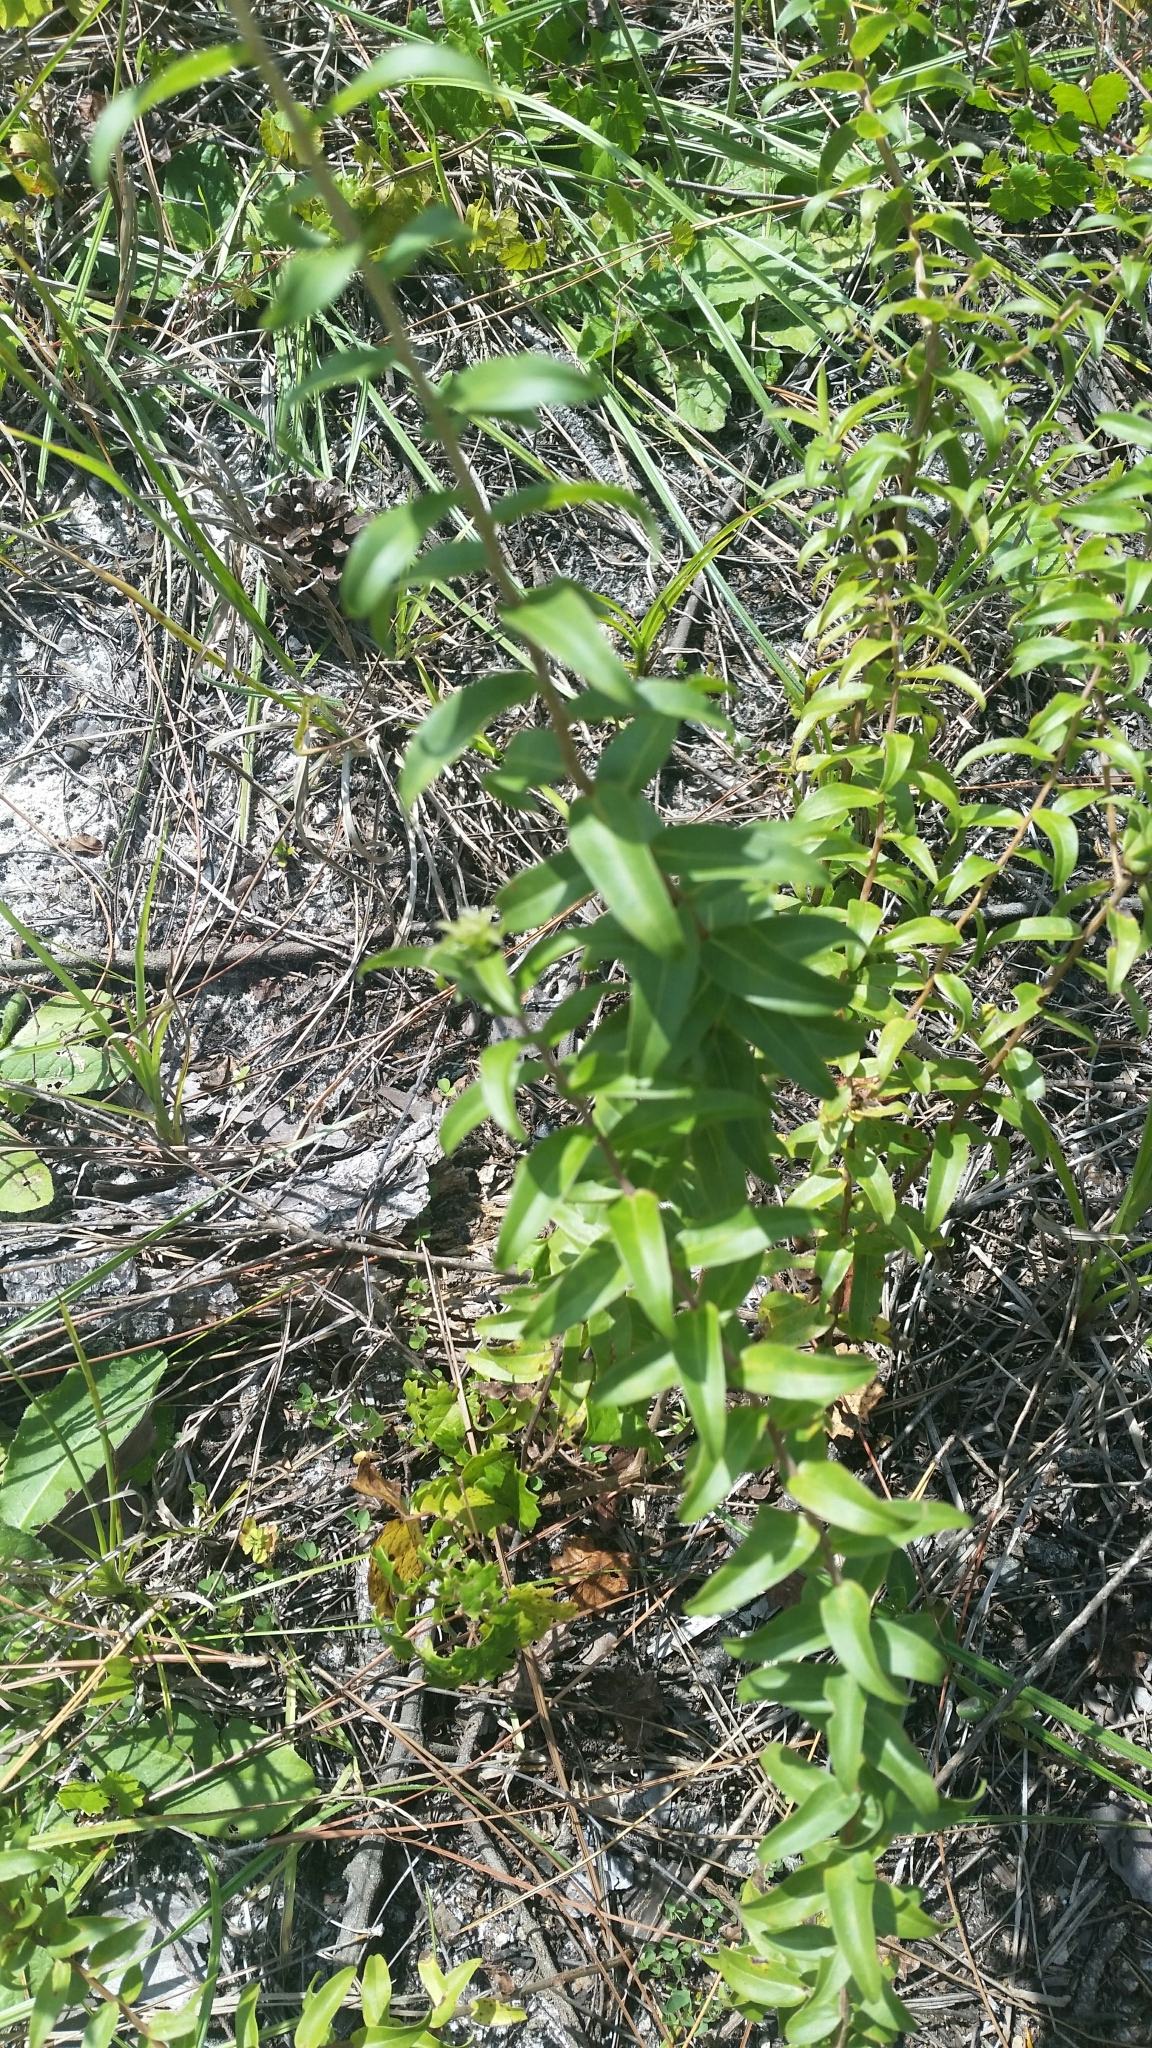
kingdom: Plantae
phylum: Tracheophyta
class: Magnoliopsida
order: Asterales
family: Asteraceae
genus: Solidago
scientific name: Solidago chapmanii
